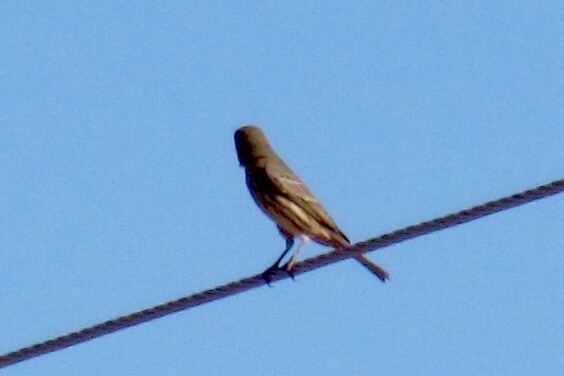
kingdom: Animalia
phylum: Chordata
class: Aves
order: Passeriformes
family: Fringillidae
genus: Haemorhous
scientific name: Haemorhous mexicanus
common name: House finch
